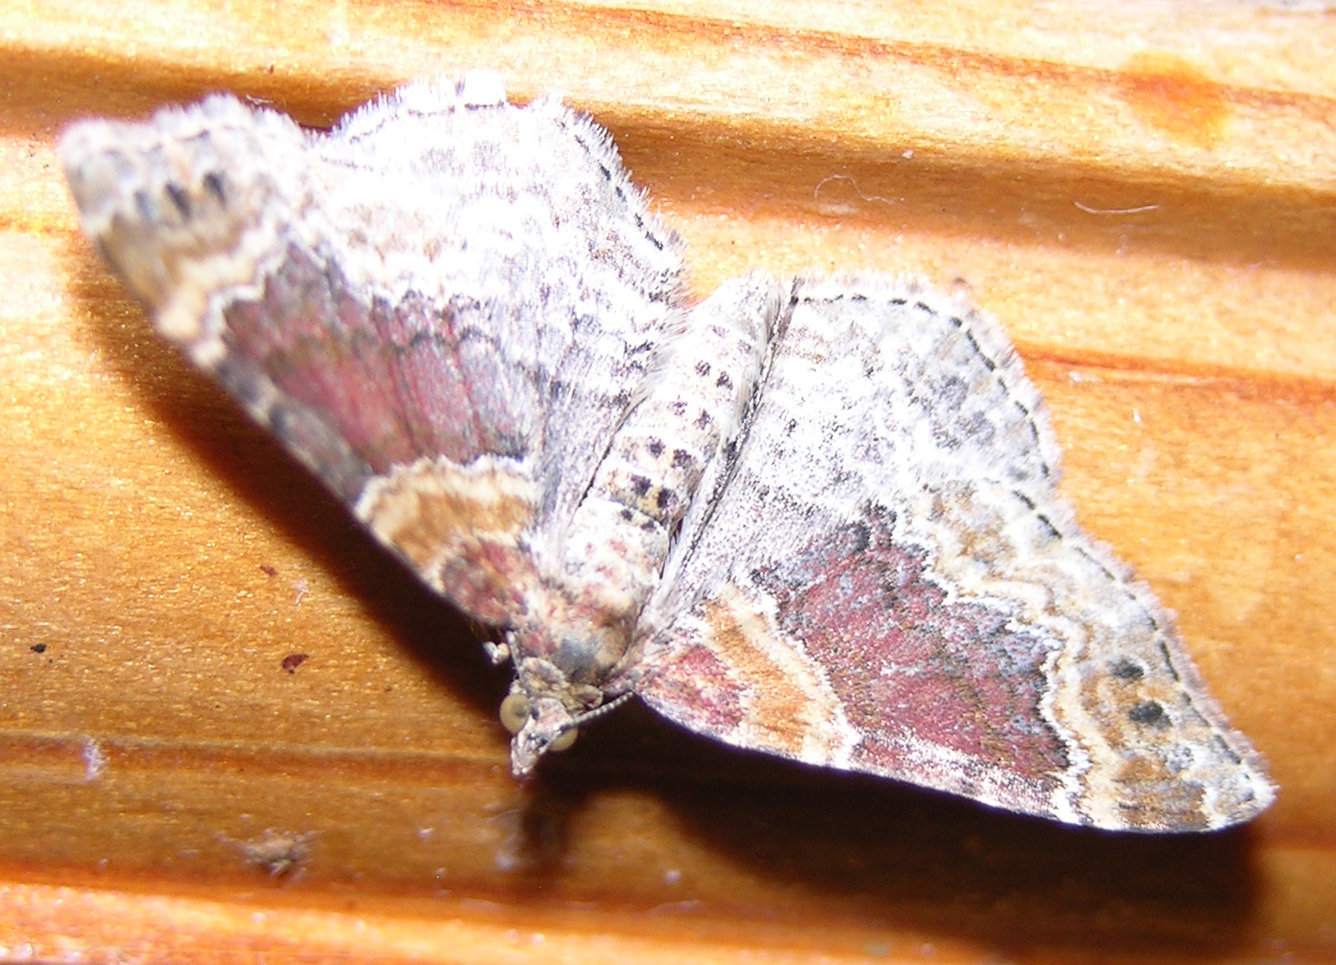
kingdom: Animalia
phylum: Arthropoda
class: Insecta
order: Lepidoptera
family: Geometridae
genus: Xanthorhoe
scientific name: Xanthorhoe spadicearia
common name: Red twin-spot carpet
